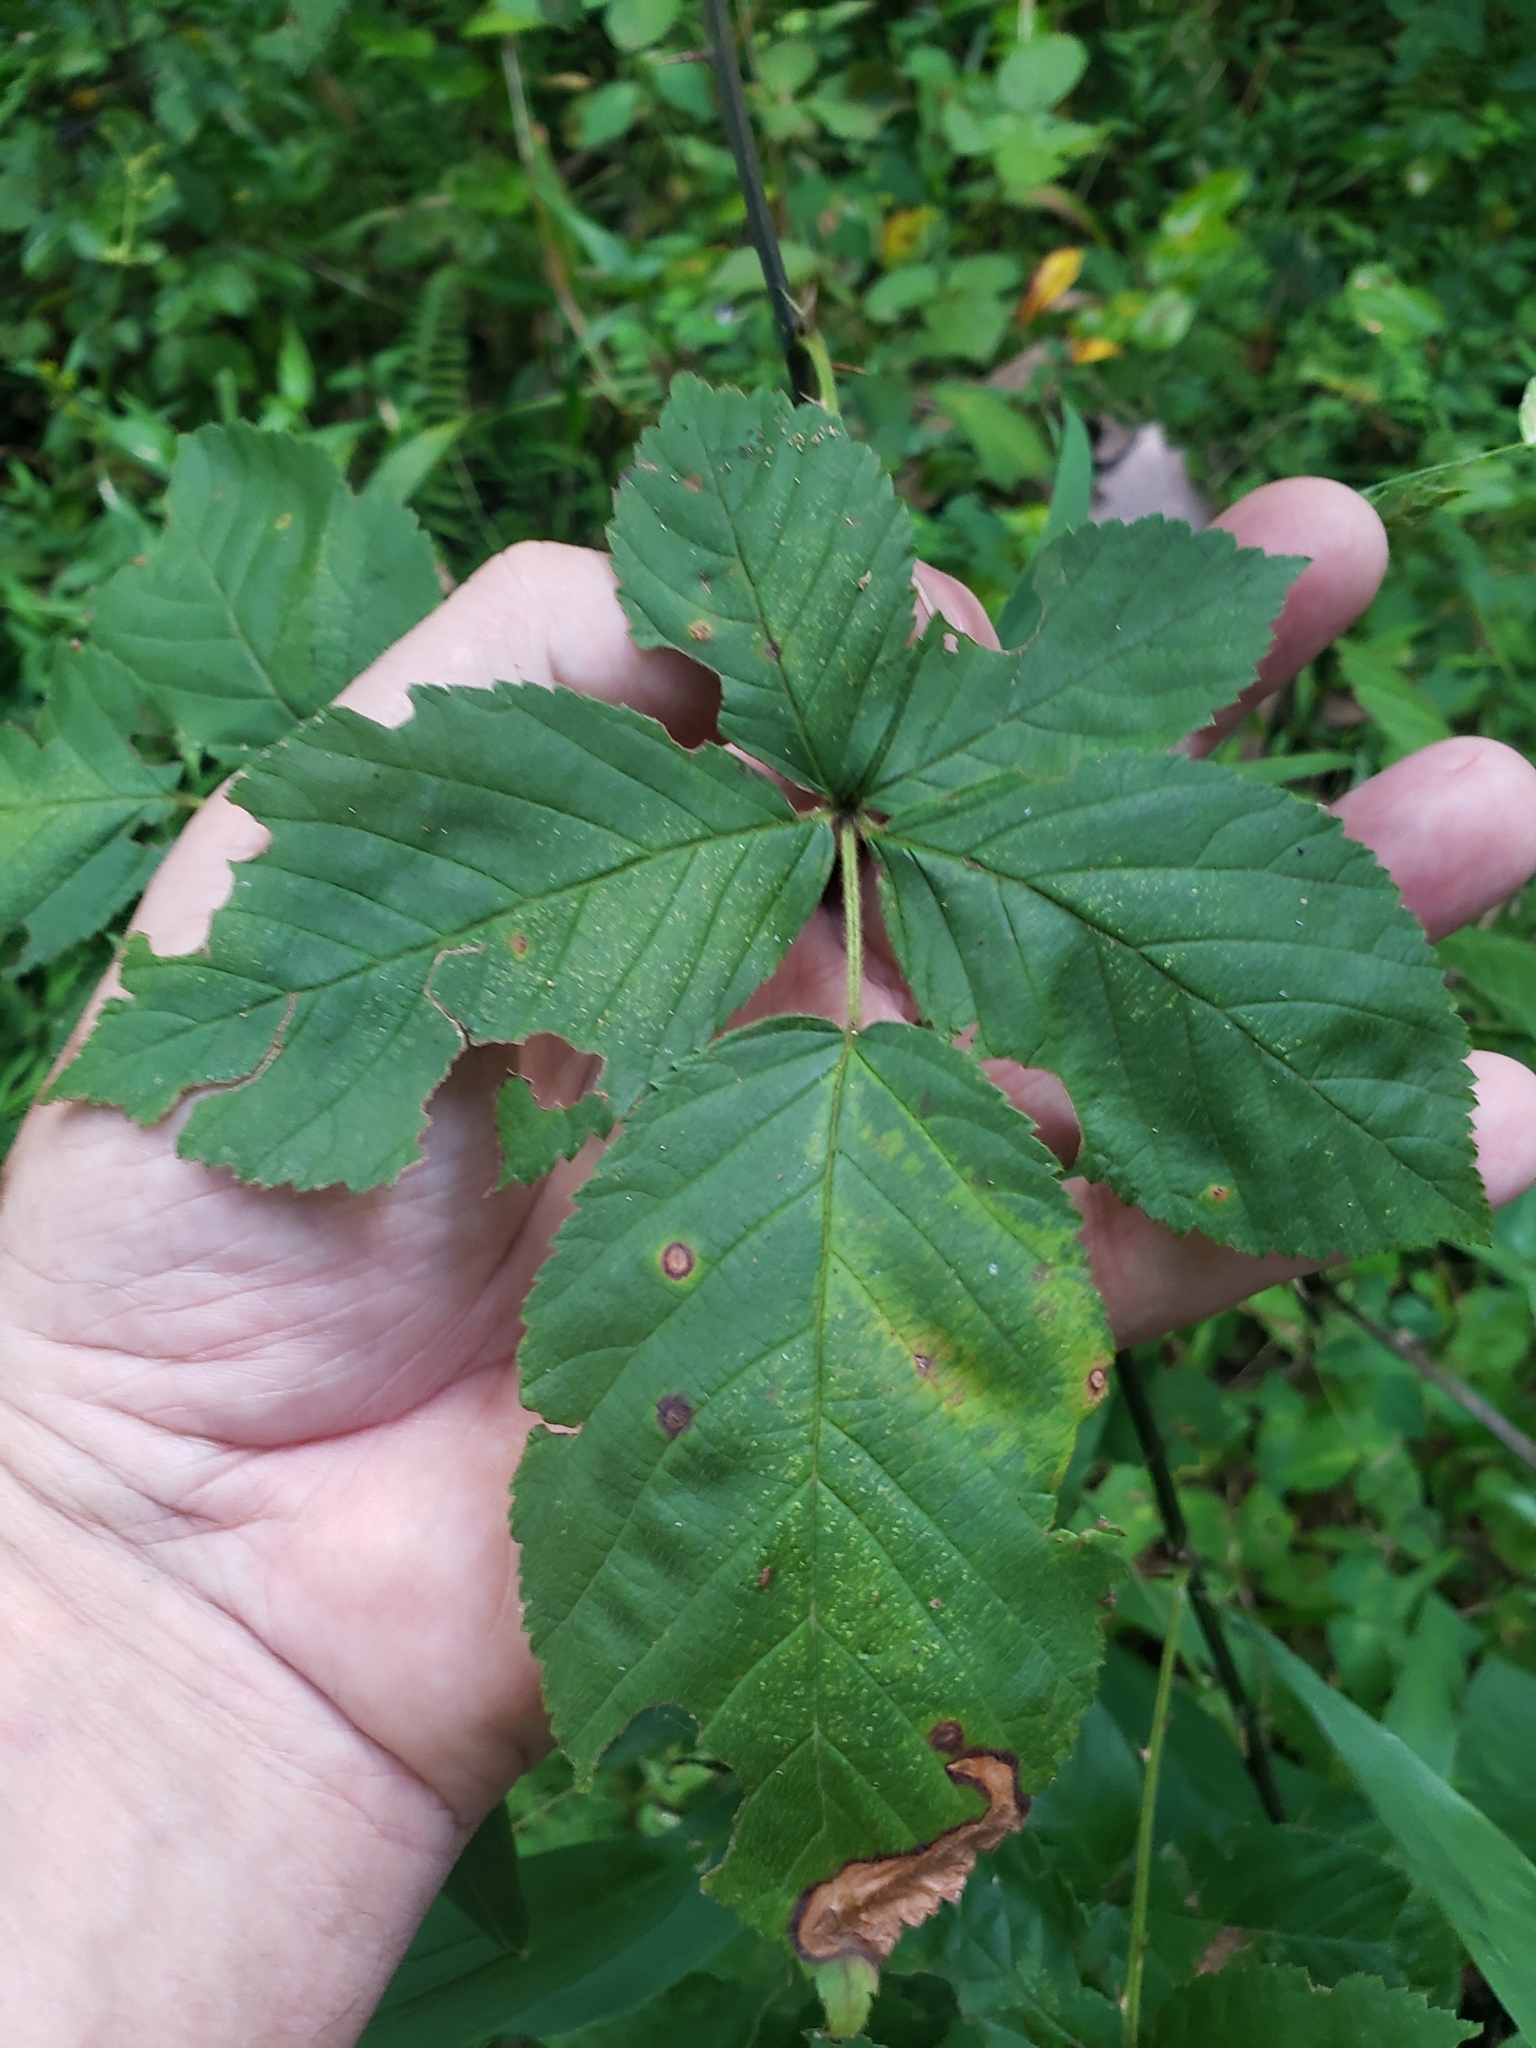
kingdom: Animalia
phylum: Arthropoda
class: Insecta
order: Diptera
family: Cecidomyiidae
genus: Neolasioptera
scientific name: Neolasioptera farinosa
